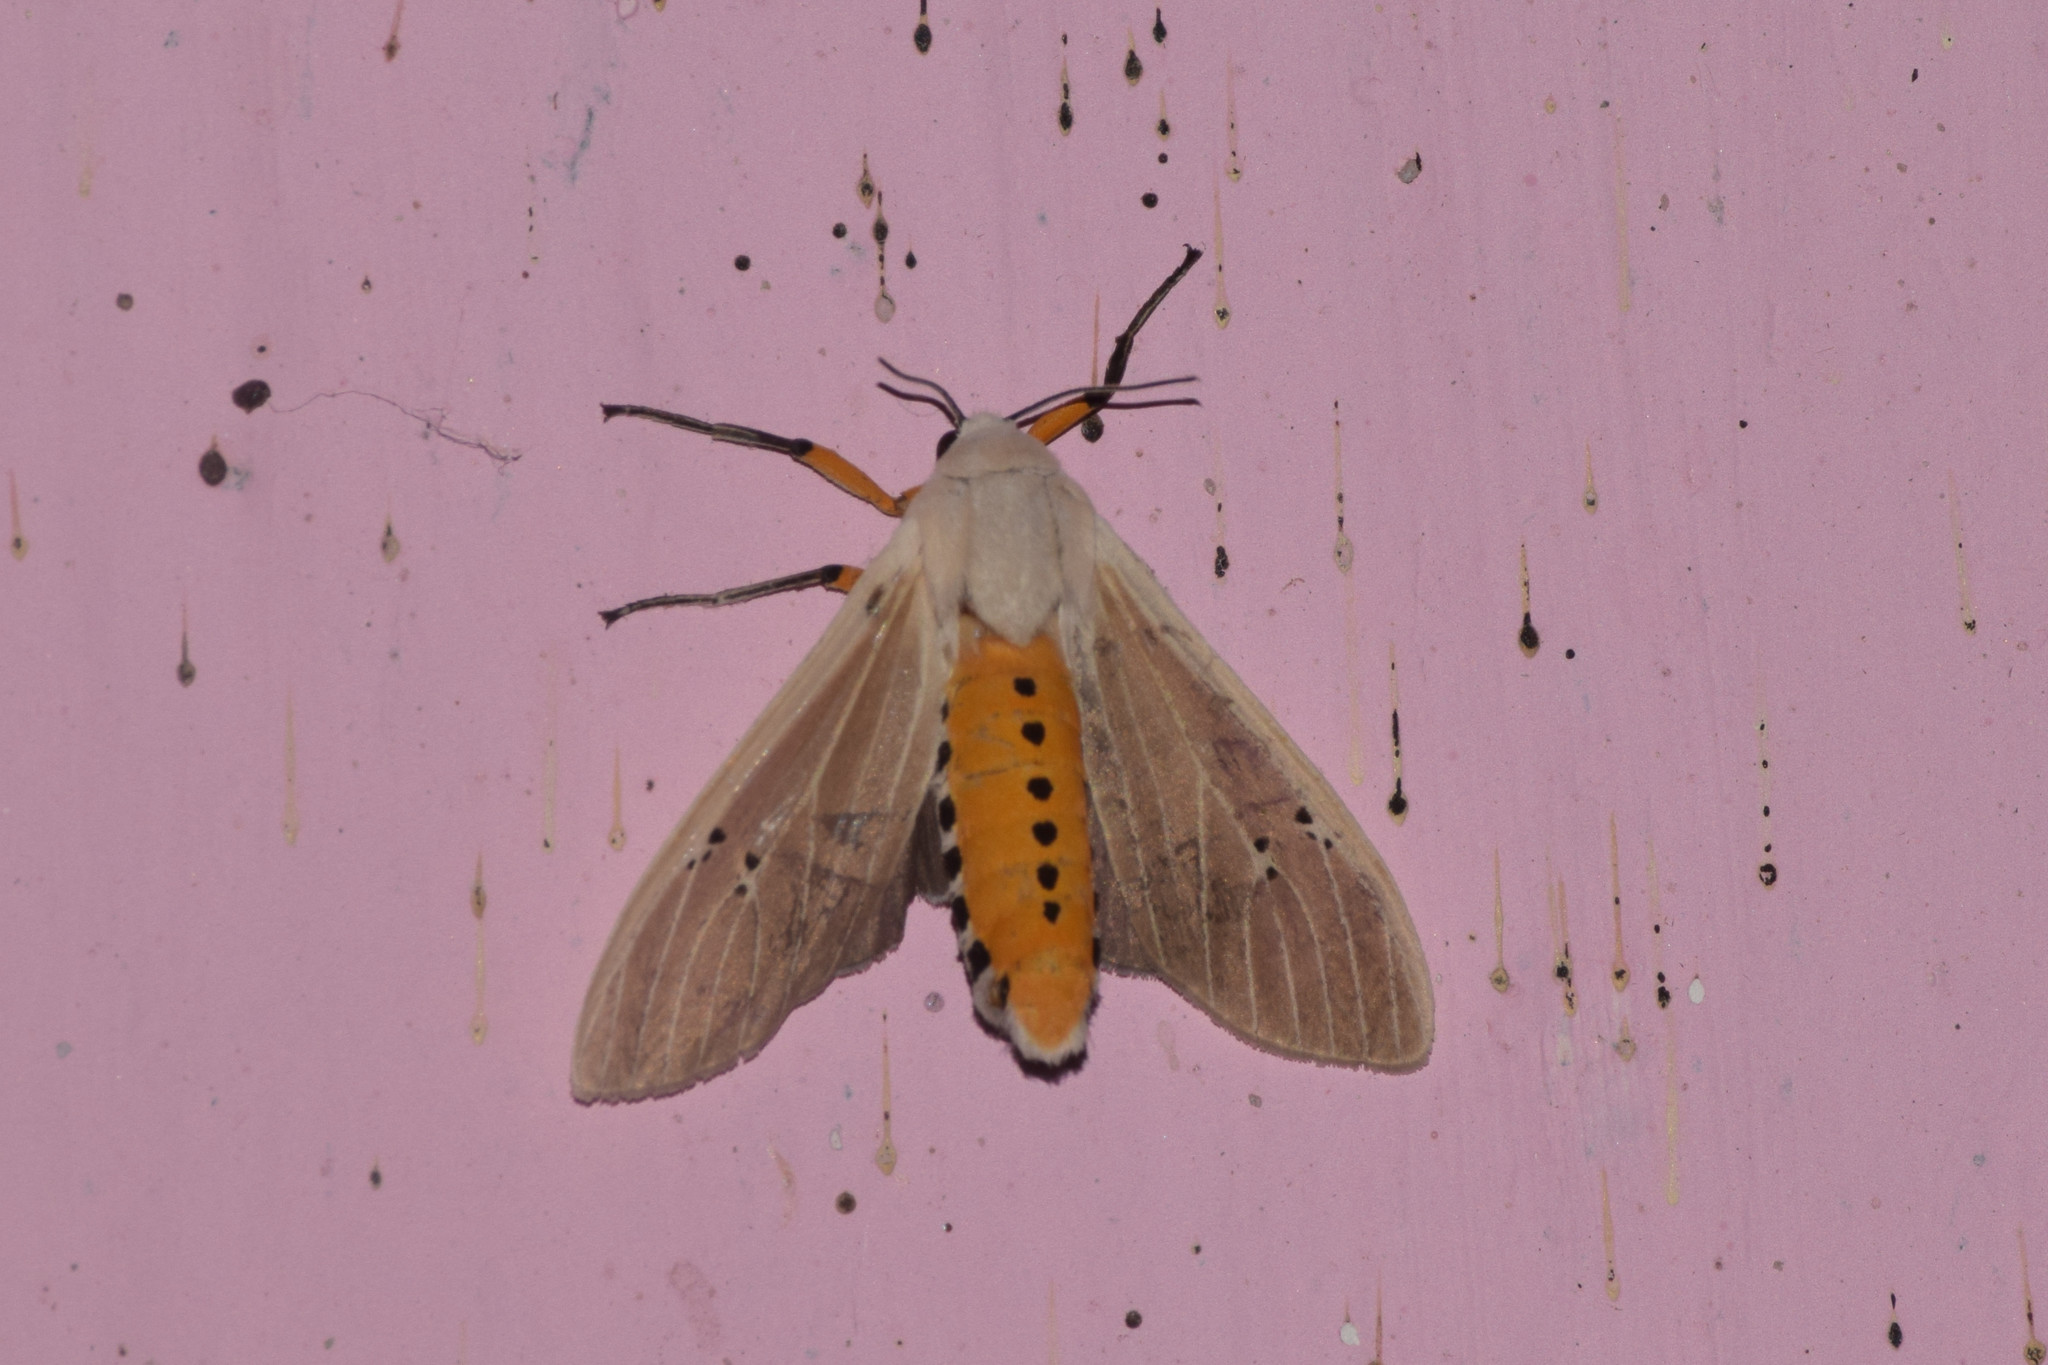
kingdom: Animalia
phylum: Arthropoda
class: Insecta
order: Lepidoptera
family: Erebidae
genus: Creatonotos
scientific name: Creatonotos transiens
